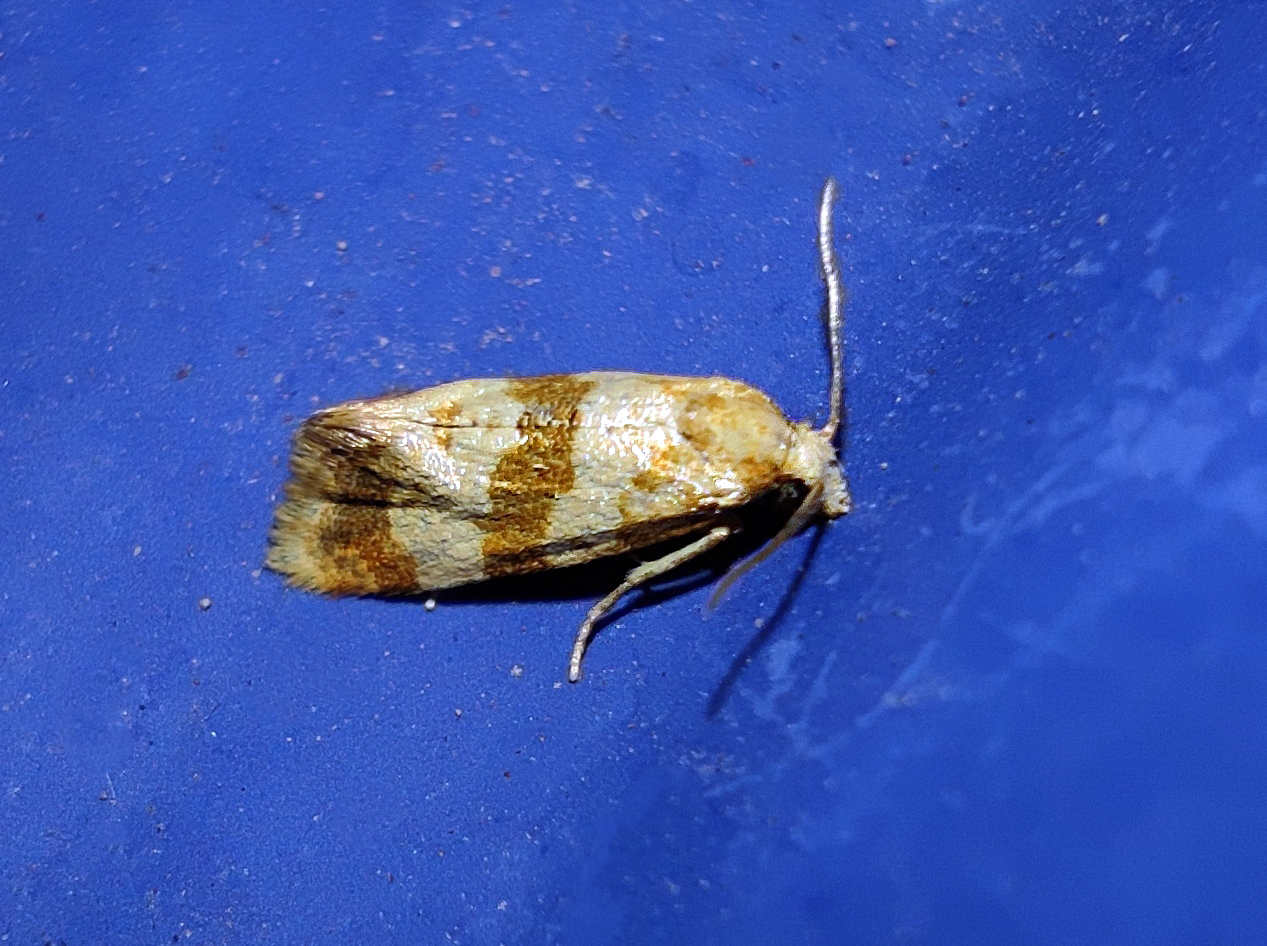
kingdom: Animalia
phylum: Arthropoda
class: Insecta
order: Lepidoptera
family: Tortricidae
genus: Phalonidia
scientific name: Phalonidia contractana
